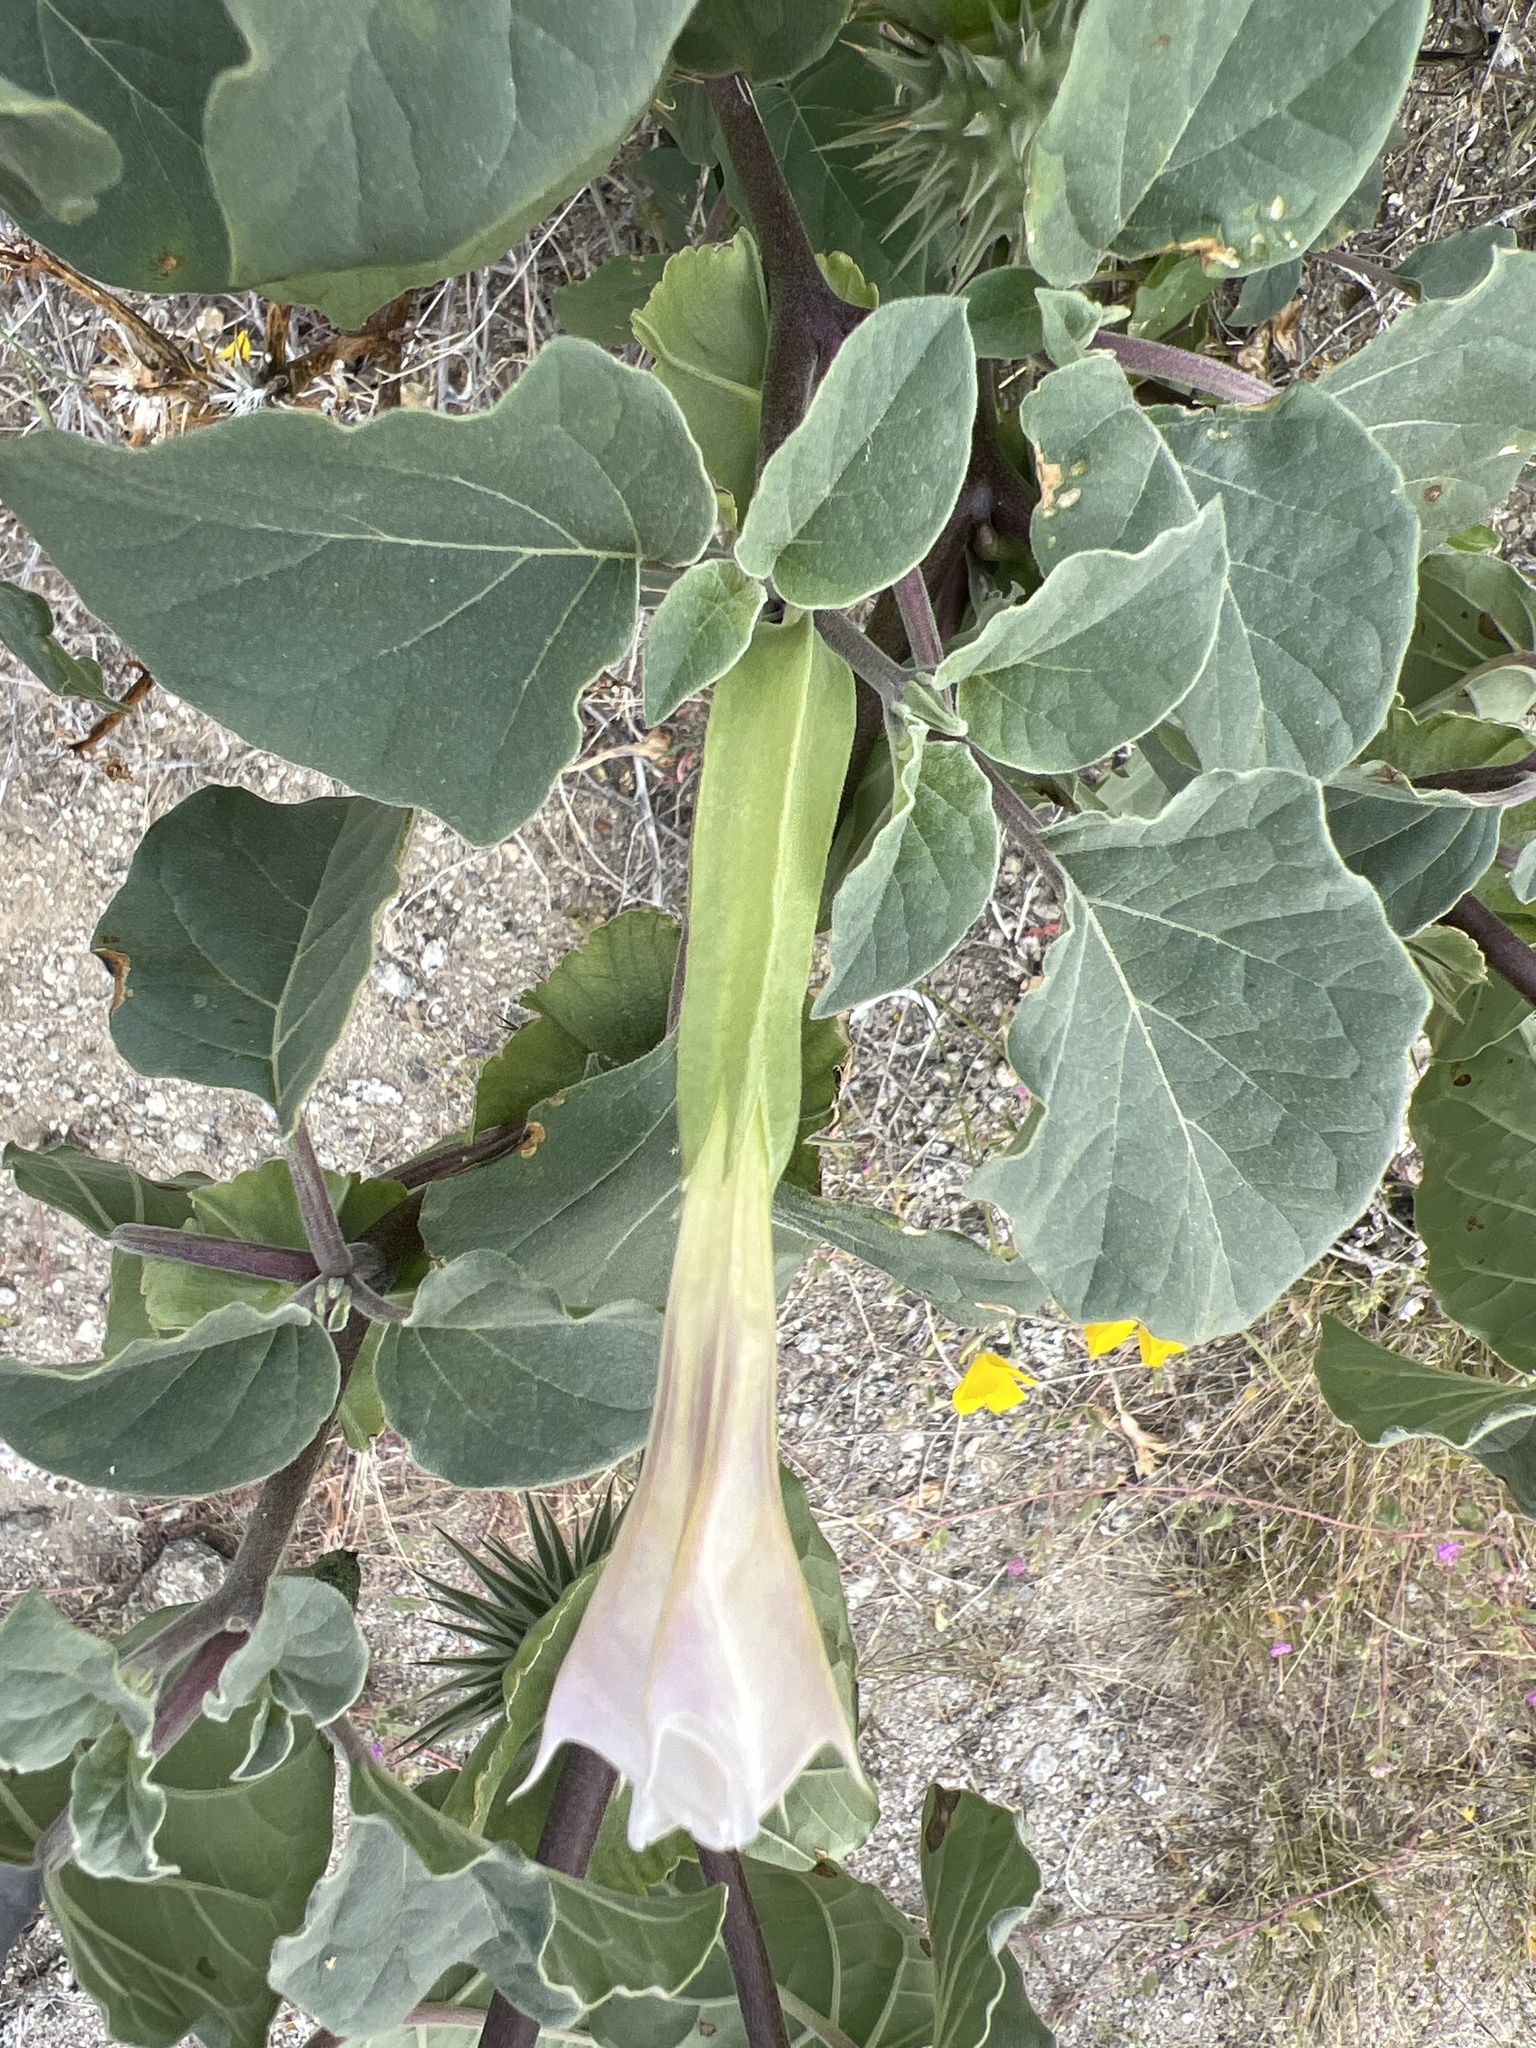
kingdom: Plantae
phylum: Tracheophyta
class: Magnoliopsida
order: Solanales
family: Solanaceae
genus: Datura
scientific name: Datura discolor
